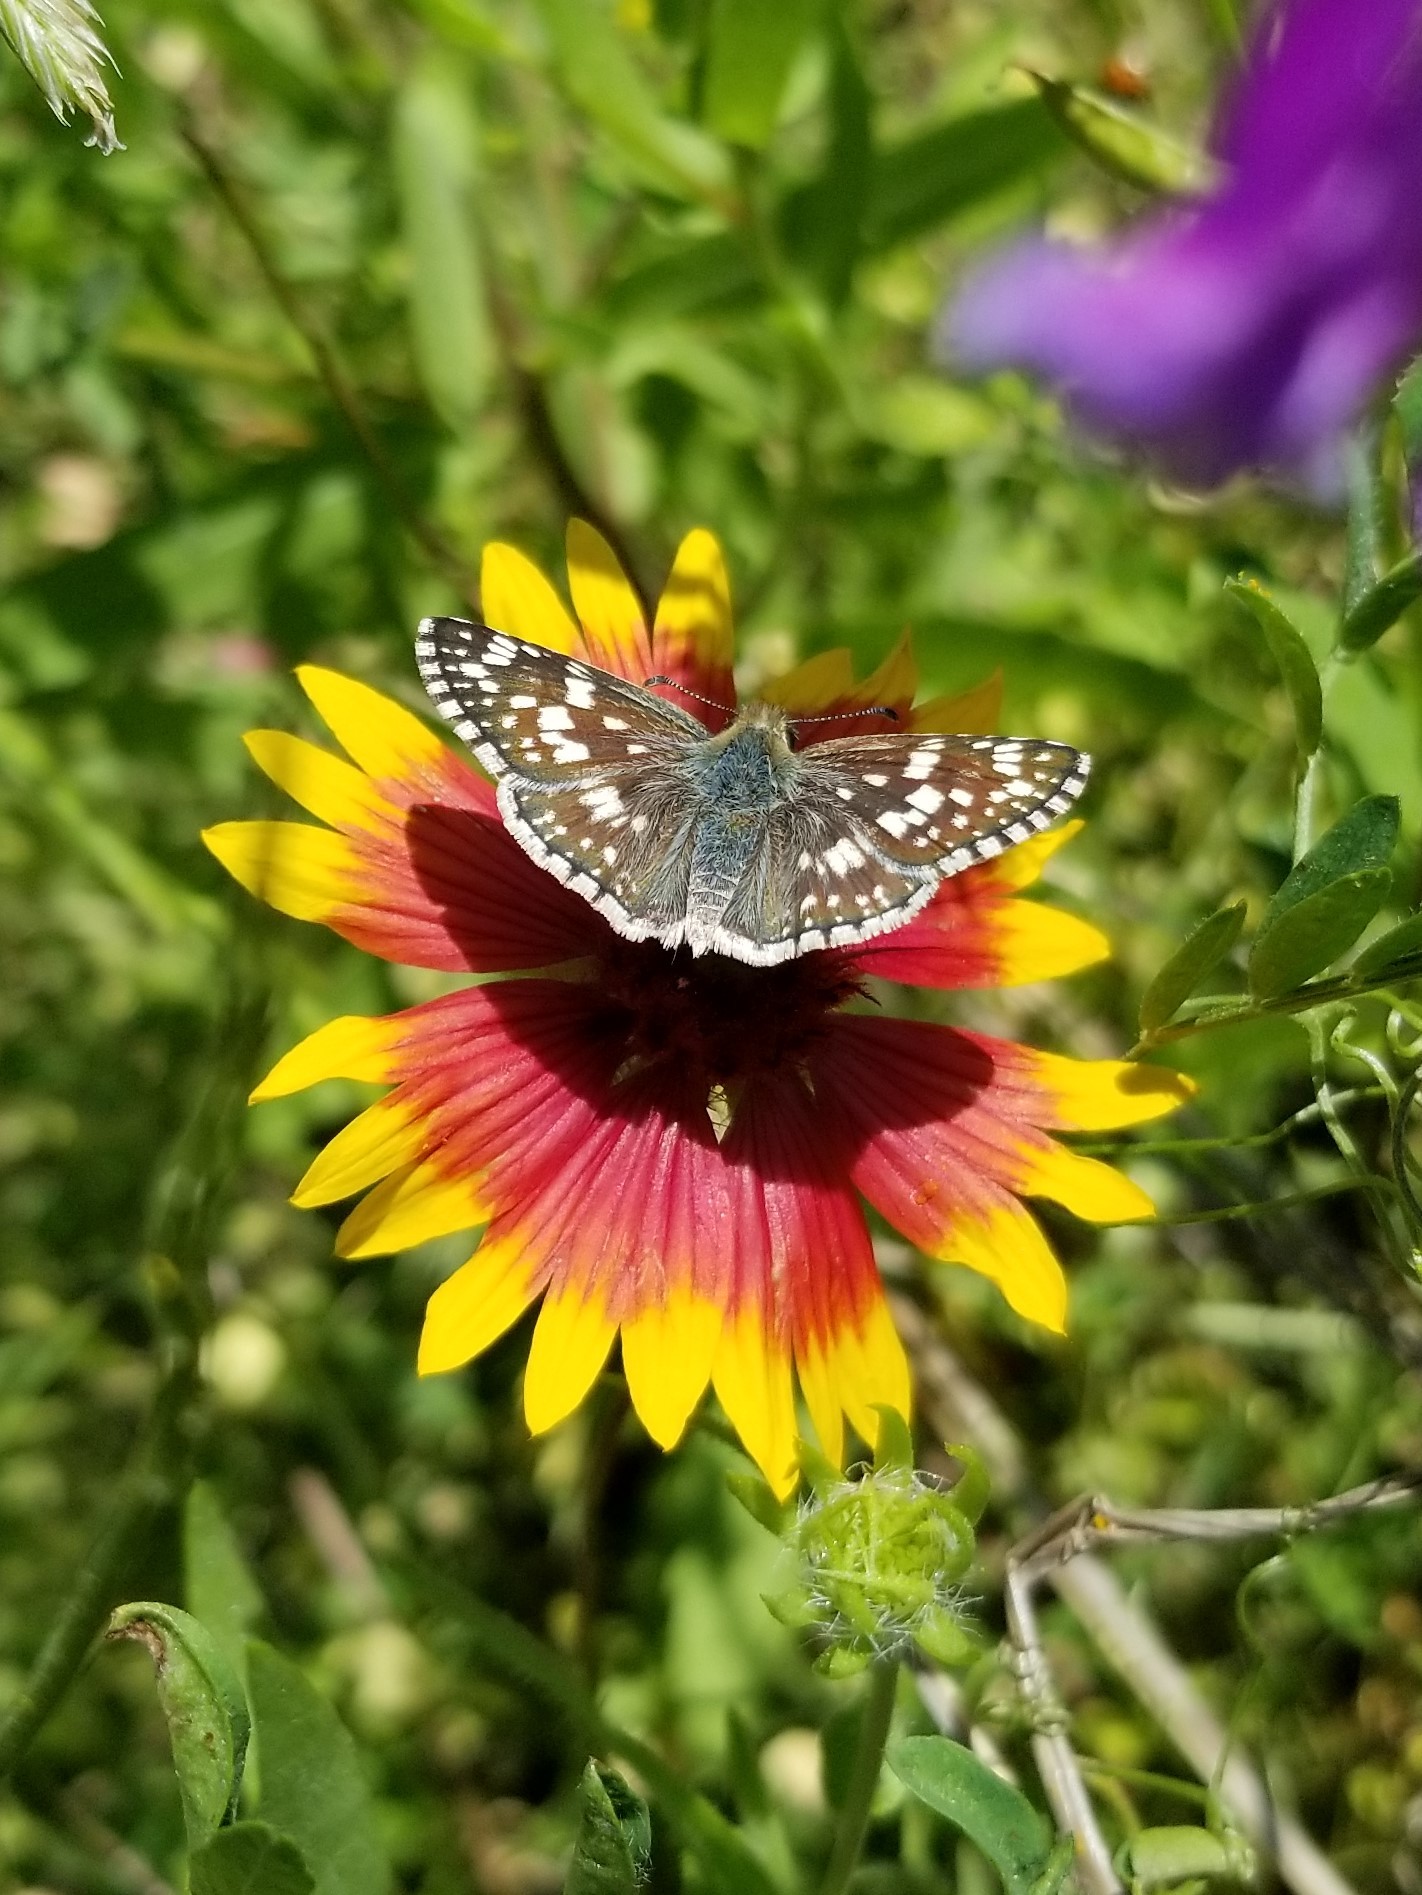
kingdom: Animalia
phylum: Arthropoda
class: Insecta
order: Lepidoptera
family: Hesperiidae
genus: Burnsius
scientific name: Burnsius communis
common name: Common checkered-skipper
